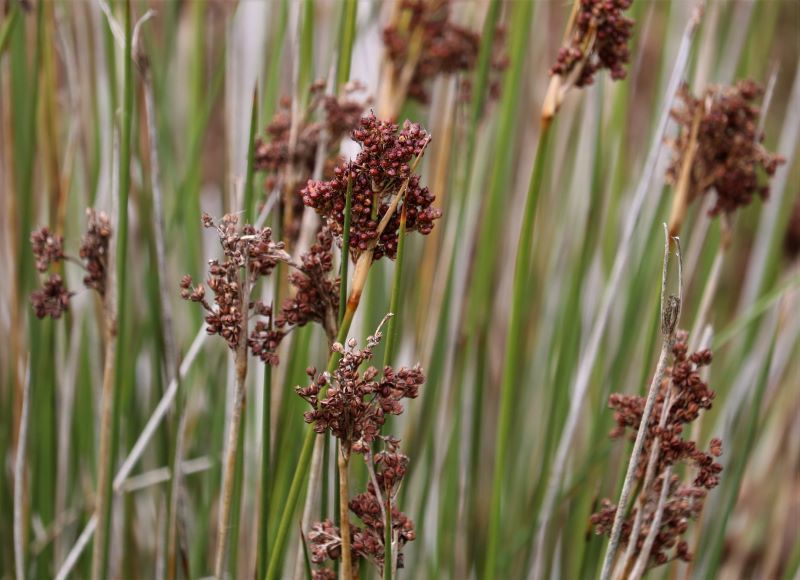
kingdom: Plantae
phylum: Tracheophyta
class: Liliopsida
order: Poales
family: Juncaceae
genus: Juncus
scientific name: Juncus acutus
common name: Sharp rush
